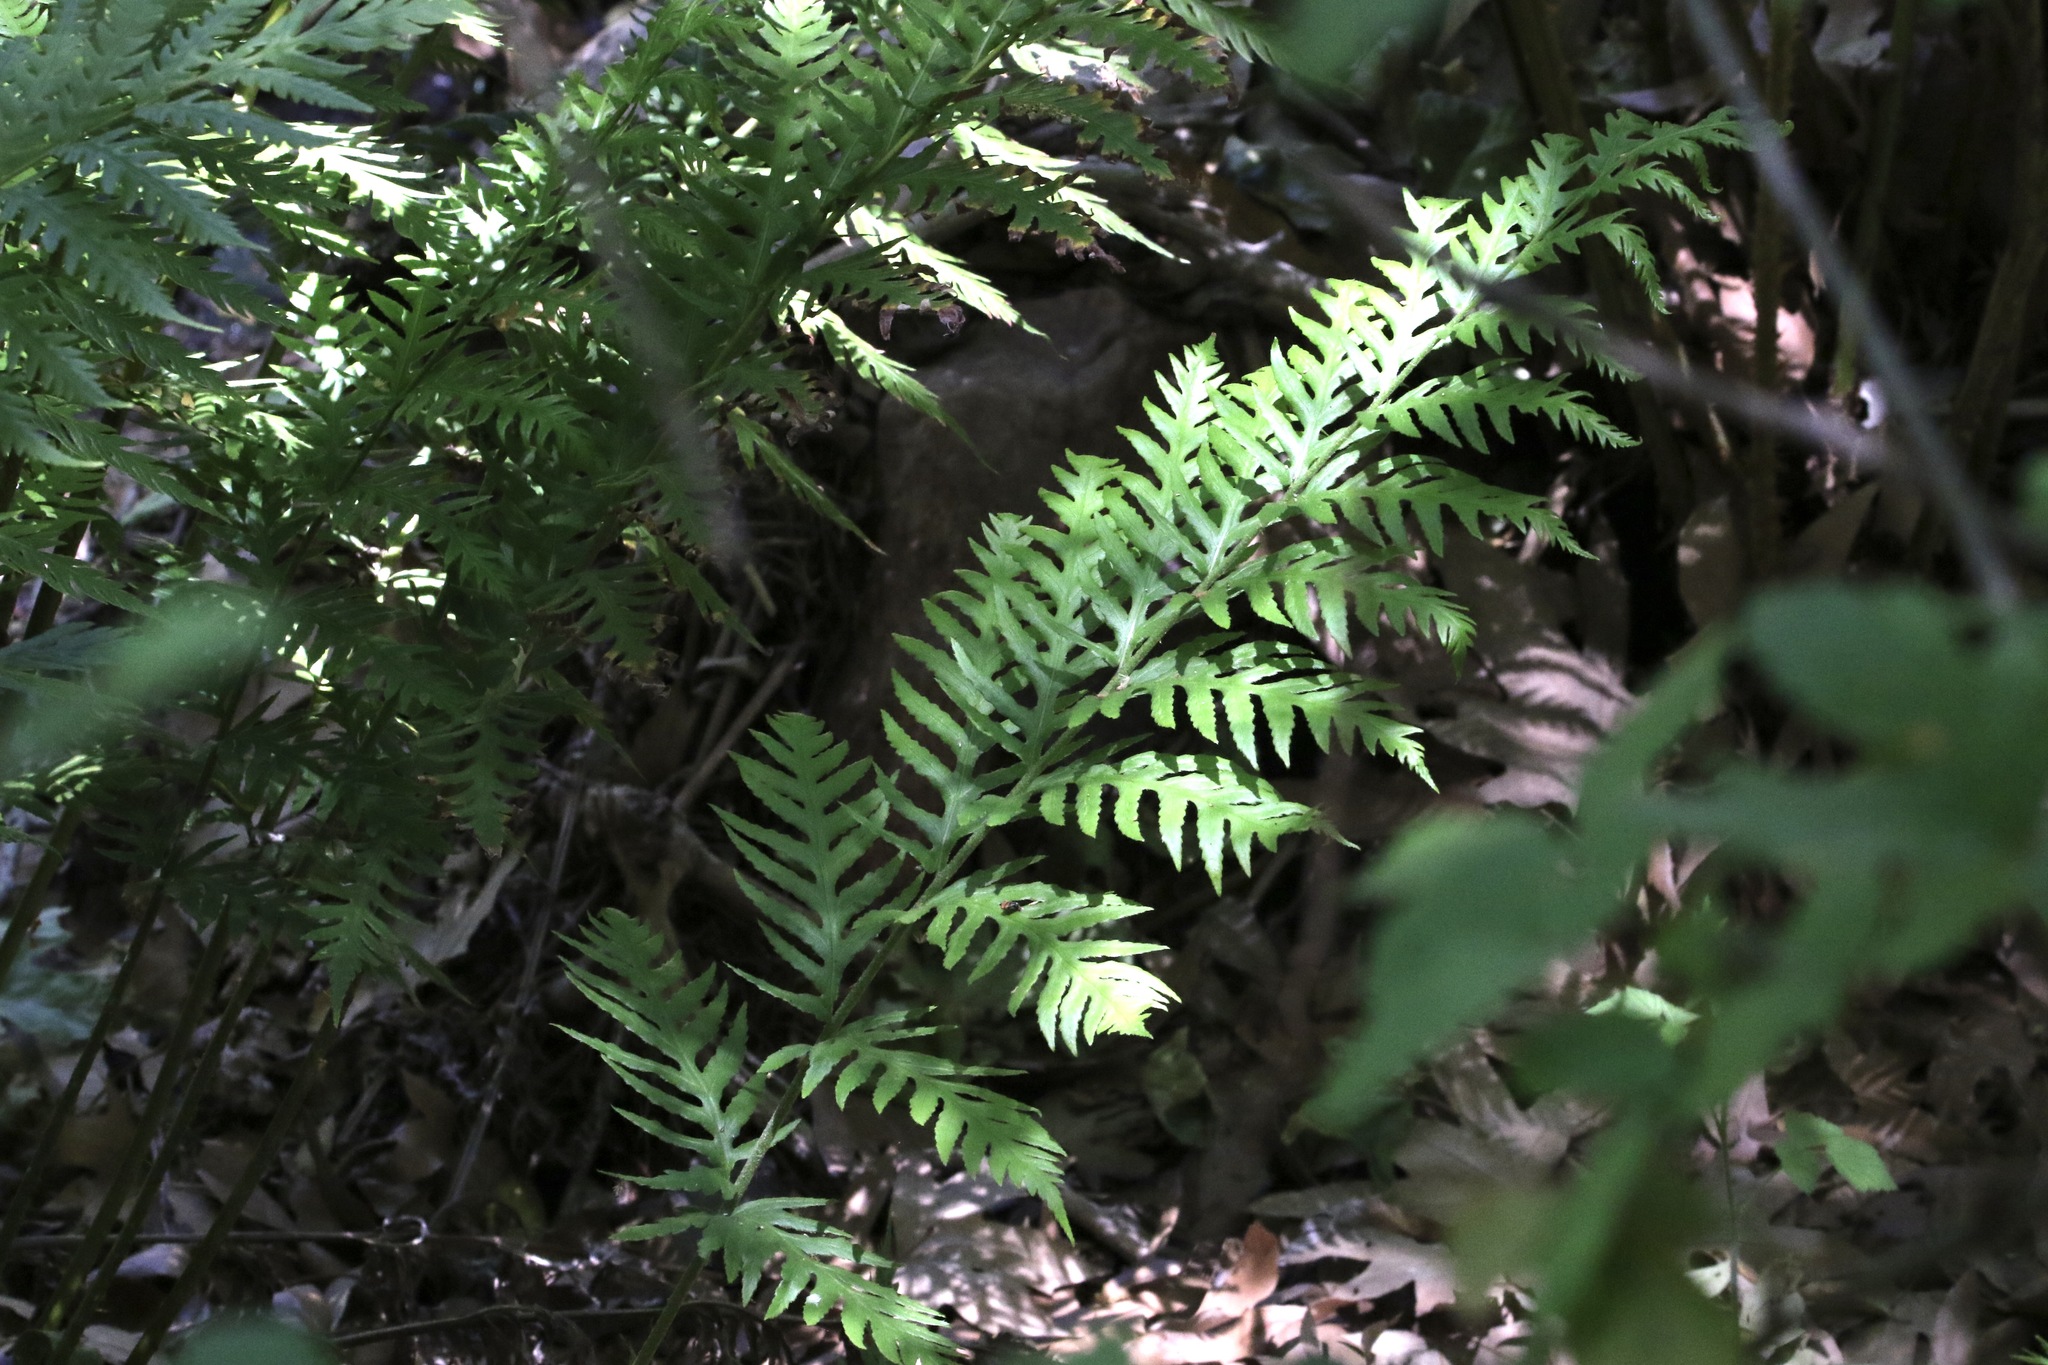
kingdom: Plantae
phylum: Tracheophyta
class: Polypodiopsida
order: Polypodiales
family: Blechnaceae
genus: Woodwardia
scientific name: Woodwardia fimbriata
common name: Giant chain fern
